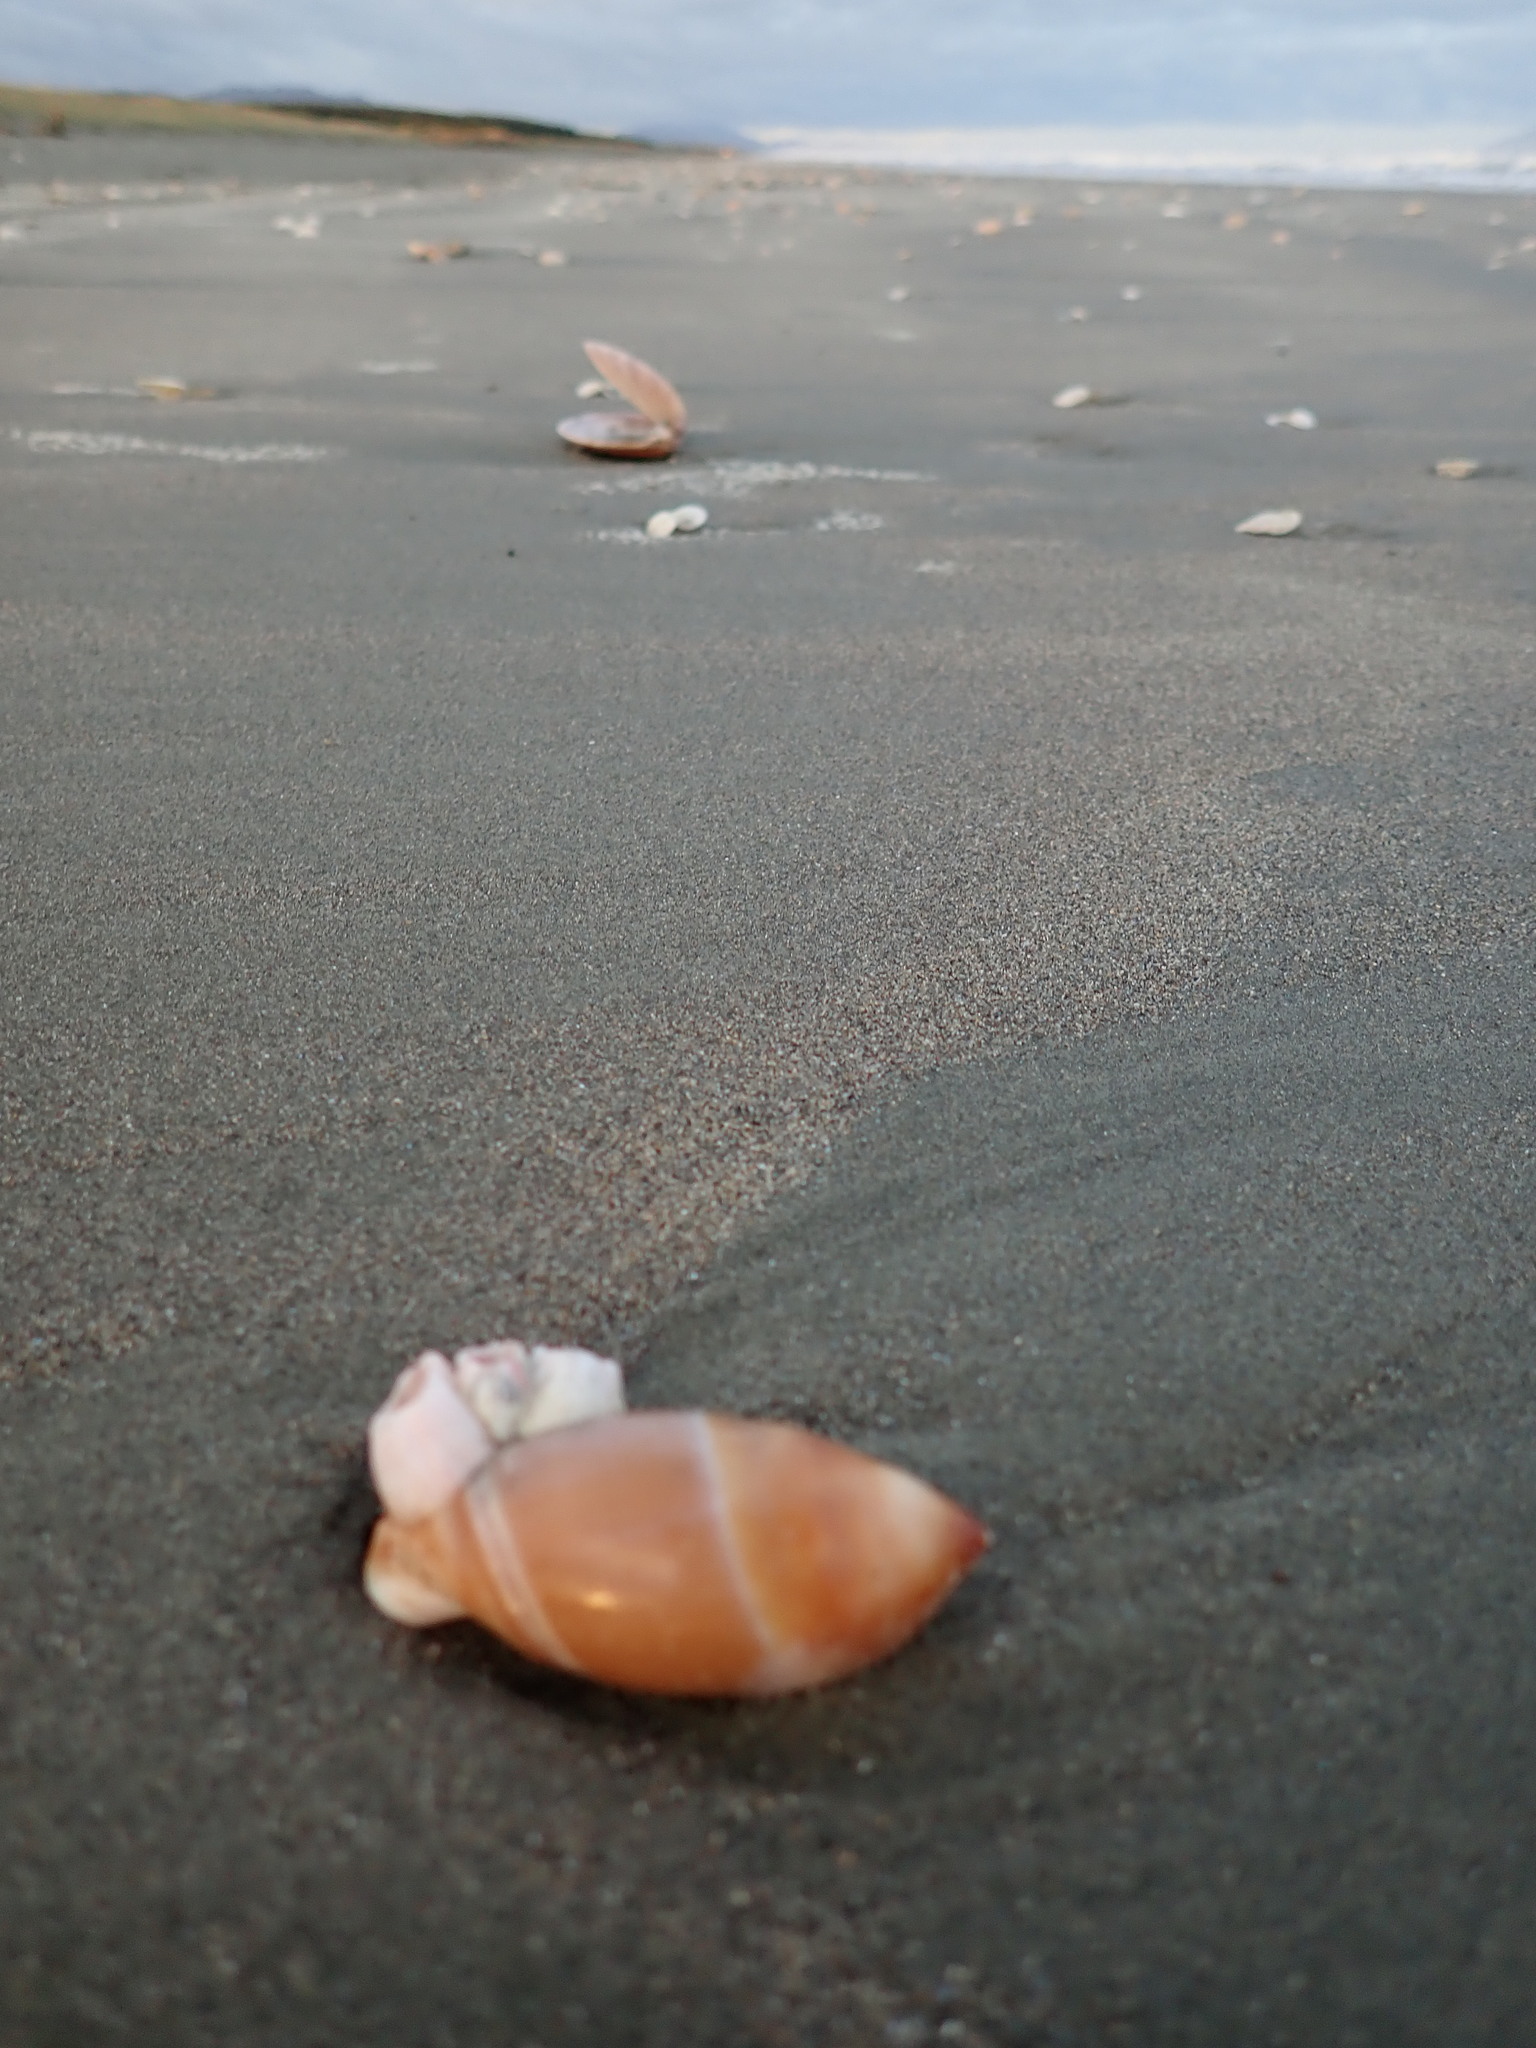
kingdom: Animalia
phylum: Arthropoda
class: Maxillopoda
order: Sessilia
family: Balanidae
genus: Notomegabalanus
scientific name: Notomegabalanus decorus
